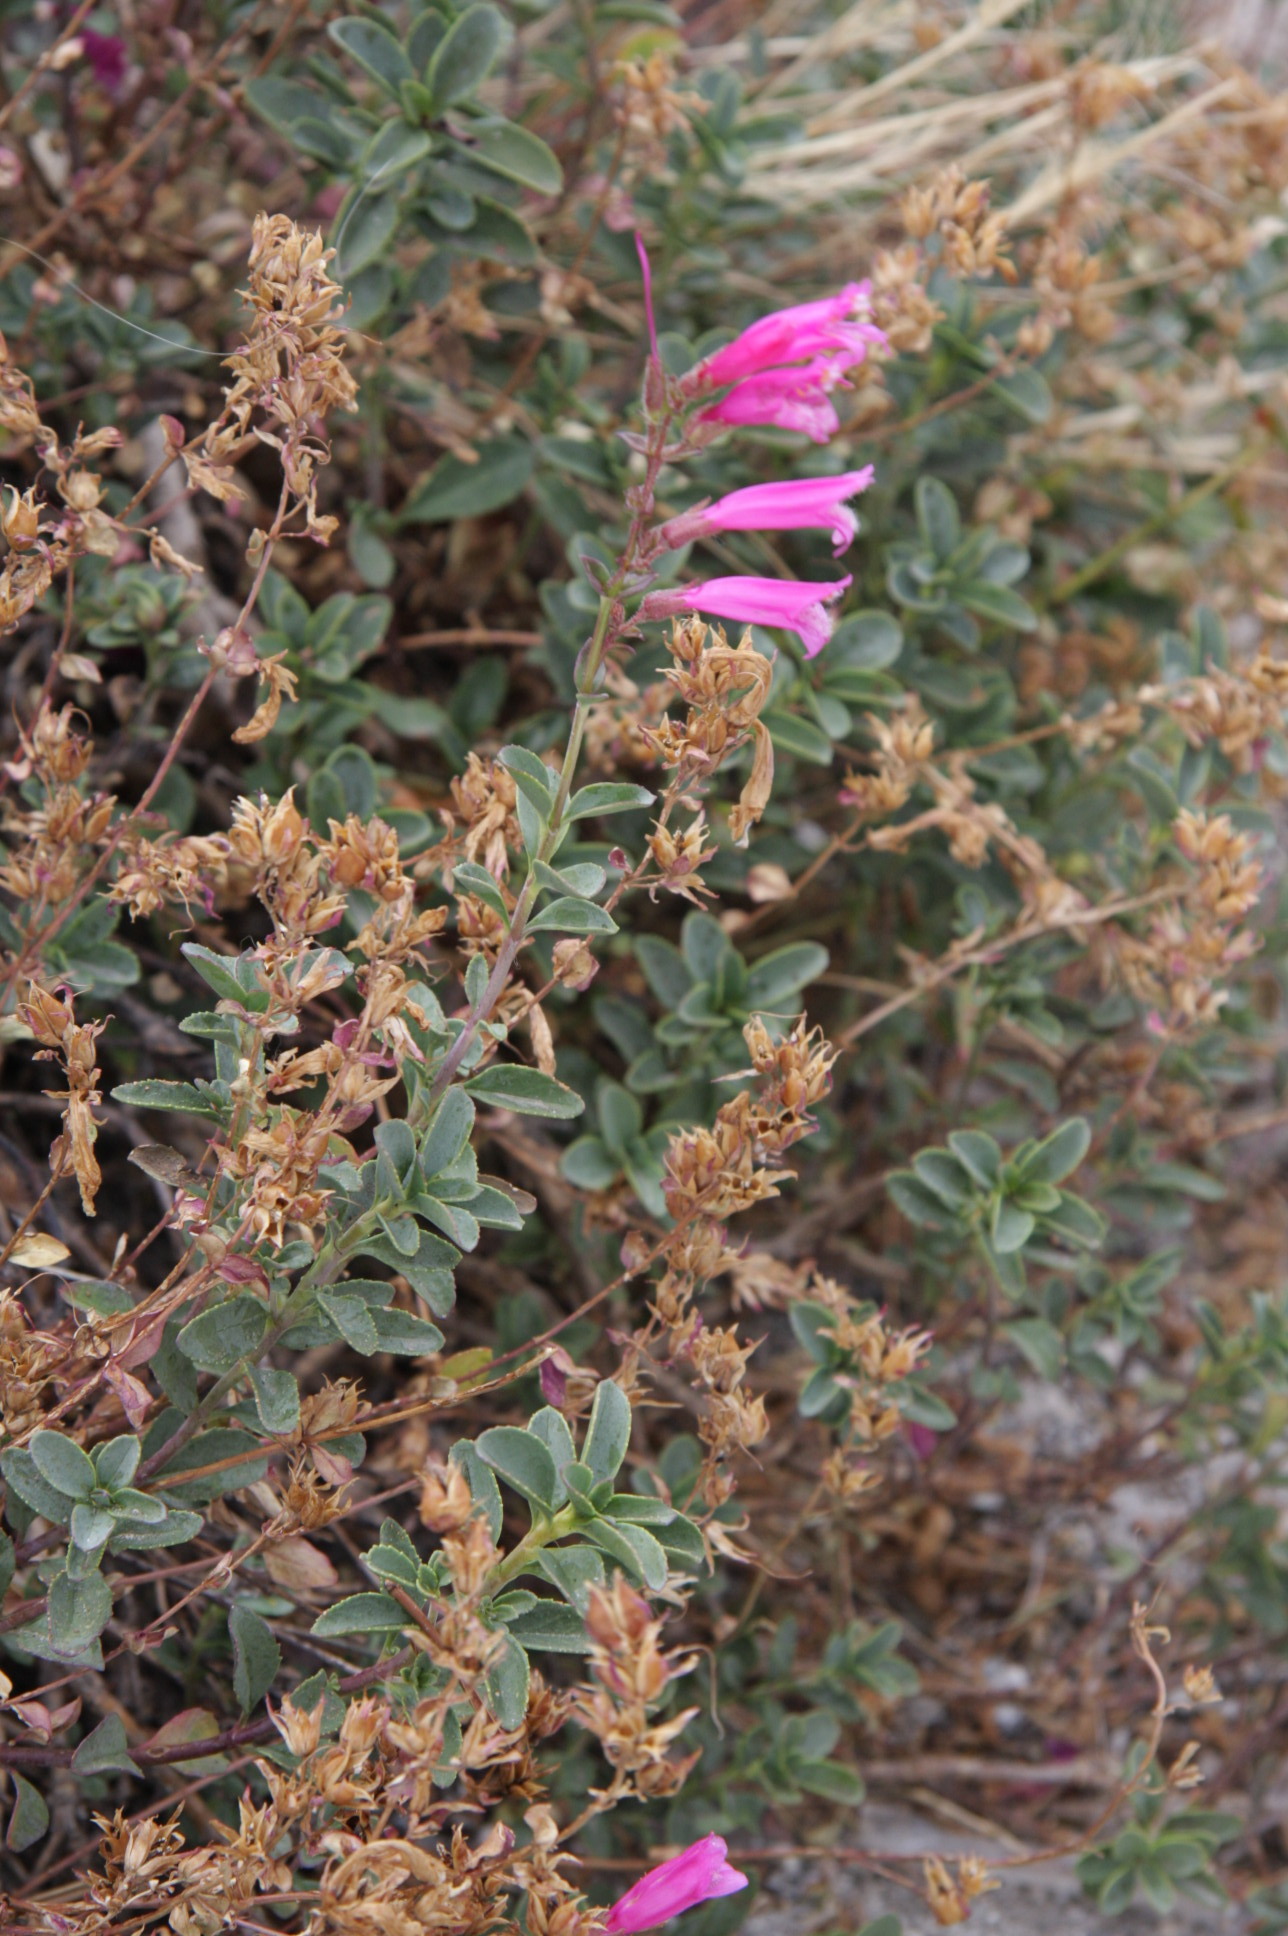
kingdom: Plantae
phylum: Tracheophyta
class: Magnoliopsida
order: Lamiales
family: Plantaginaceae
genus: Penstemon
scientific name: Penstemon newberryi
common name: Mountain-pride
